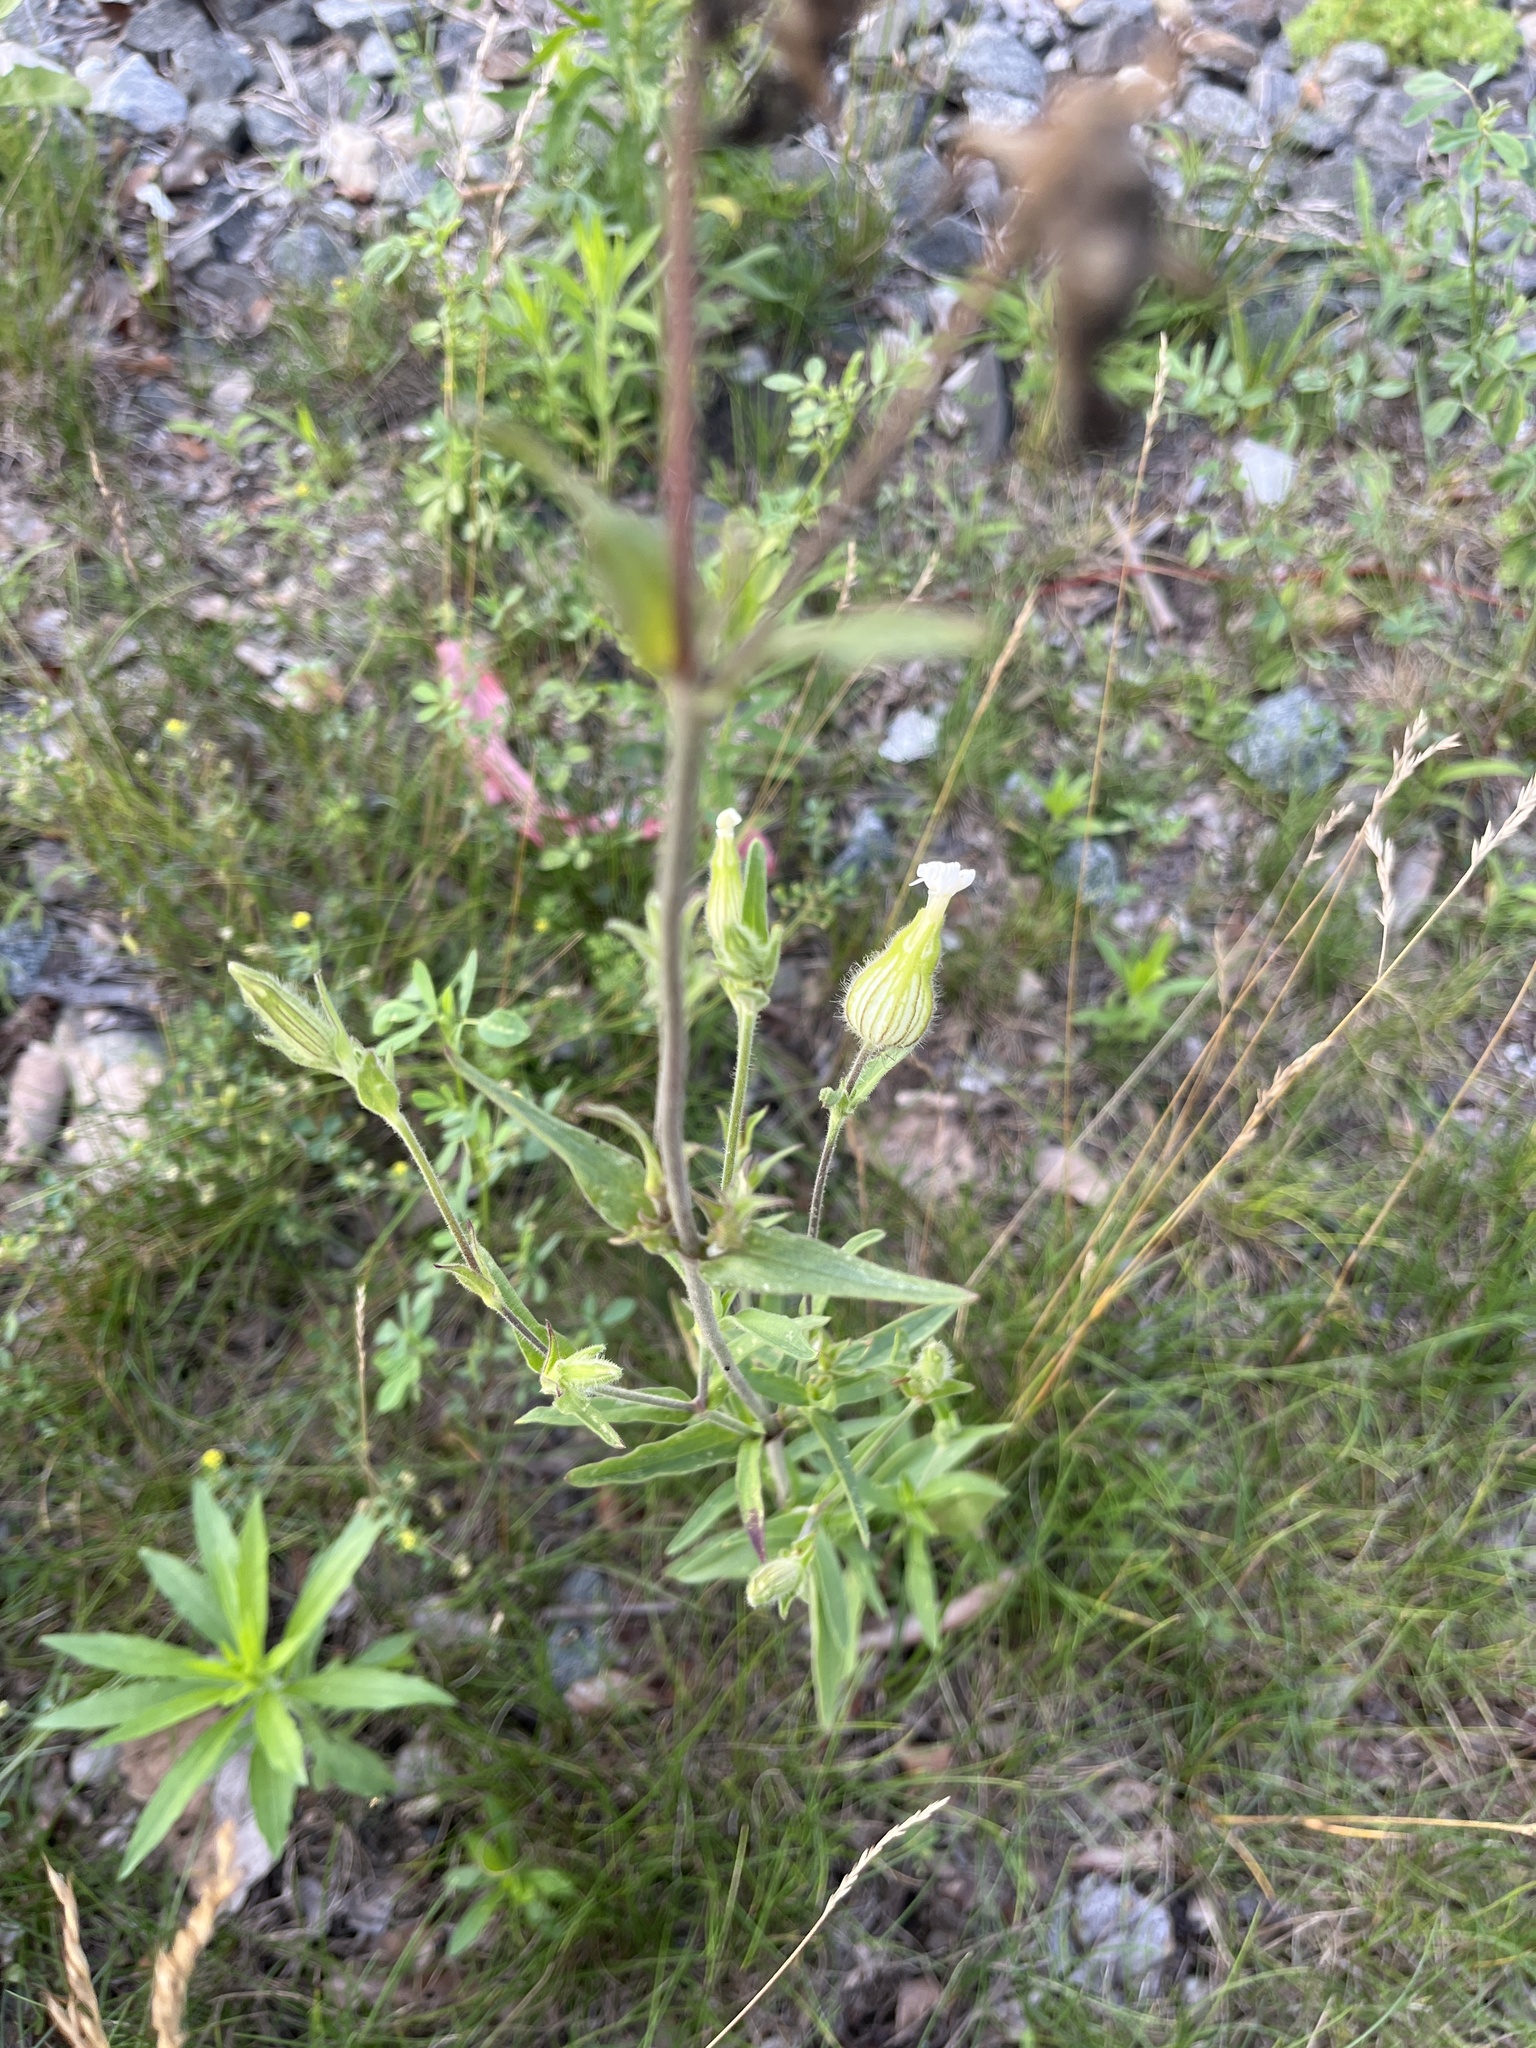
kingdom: Plantae
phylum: Tracheophyta
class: Magnoliopsida
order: Caryophyllales
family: Caryophyllaceae
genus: Silene
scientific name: Silene latifolia
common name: White campion
